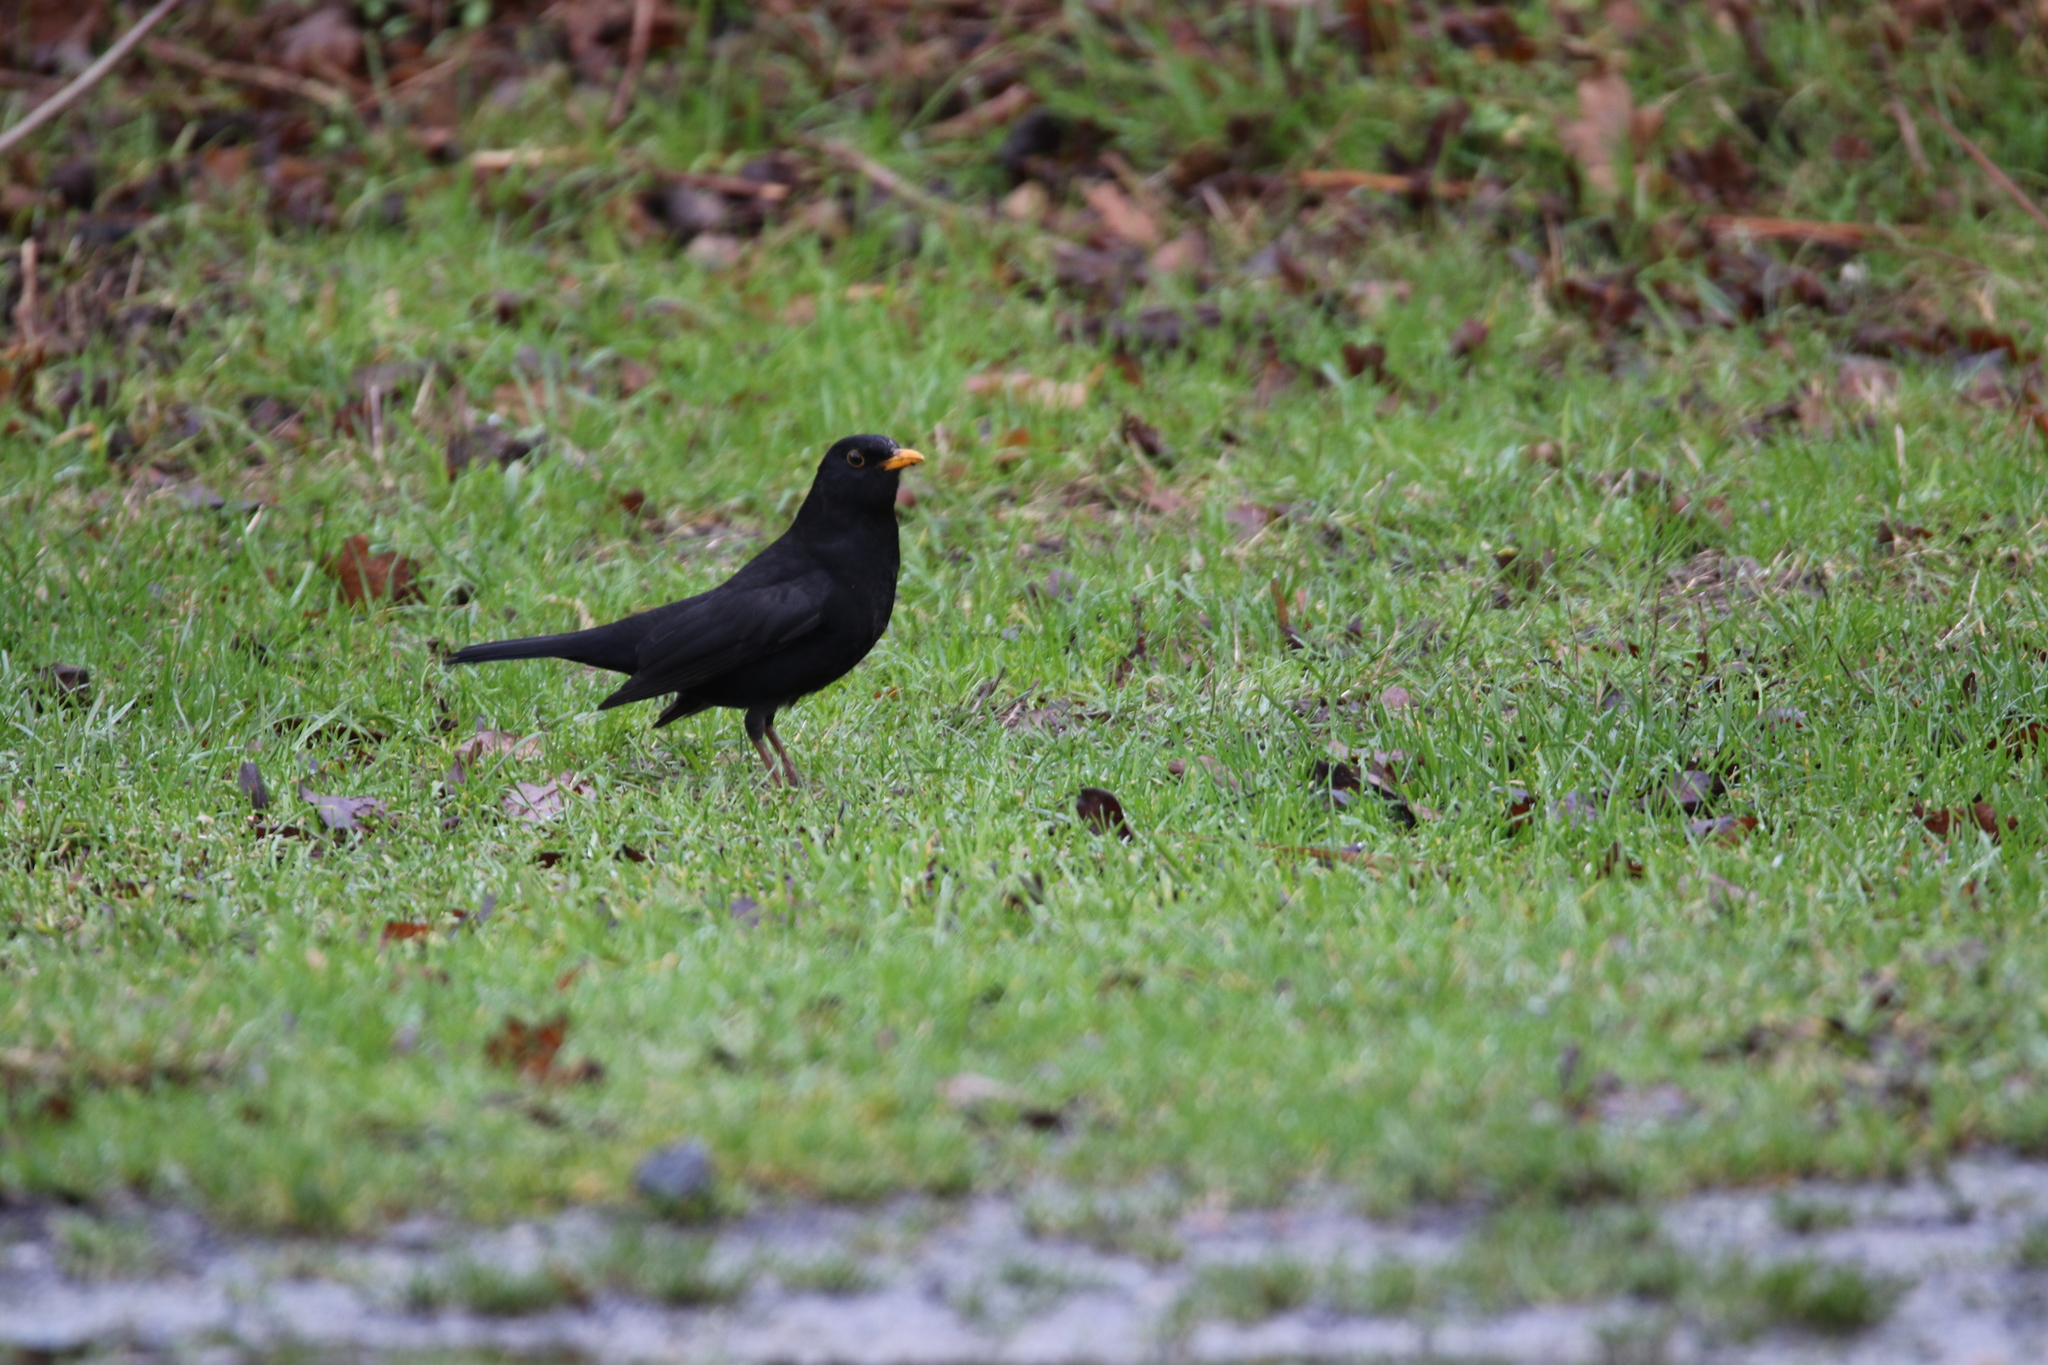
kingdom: Animalia
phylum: Chordata
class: Aves
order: Passeriformes
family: Turdidae
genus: Turdus
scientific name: Turdus merula
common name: Common blackbird
